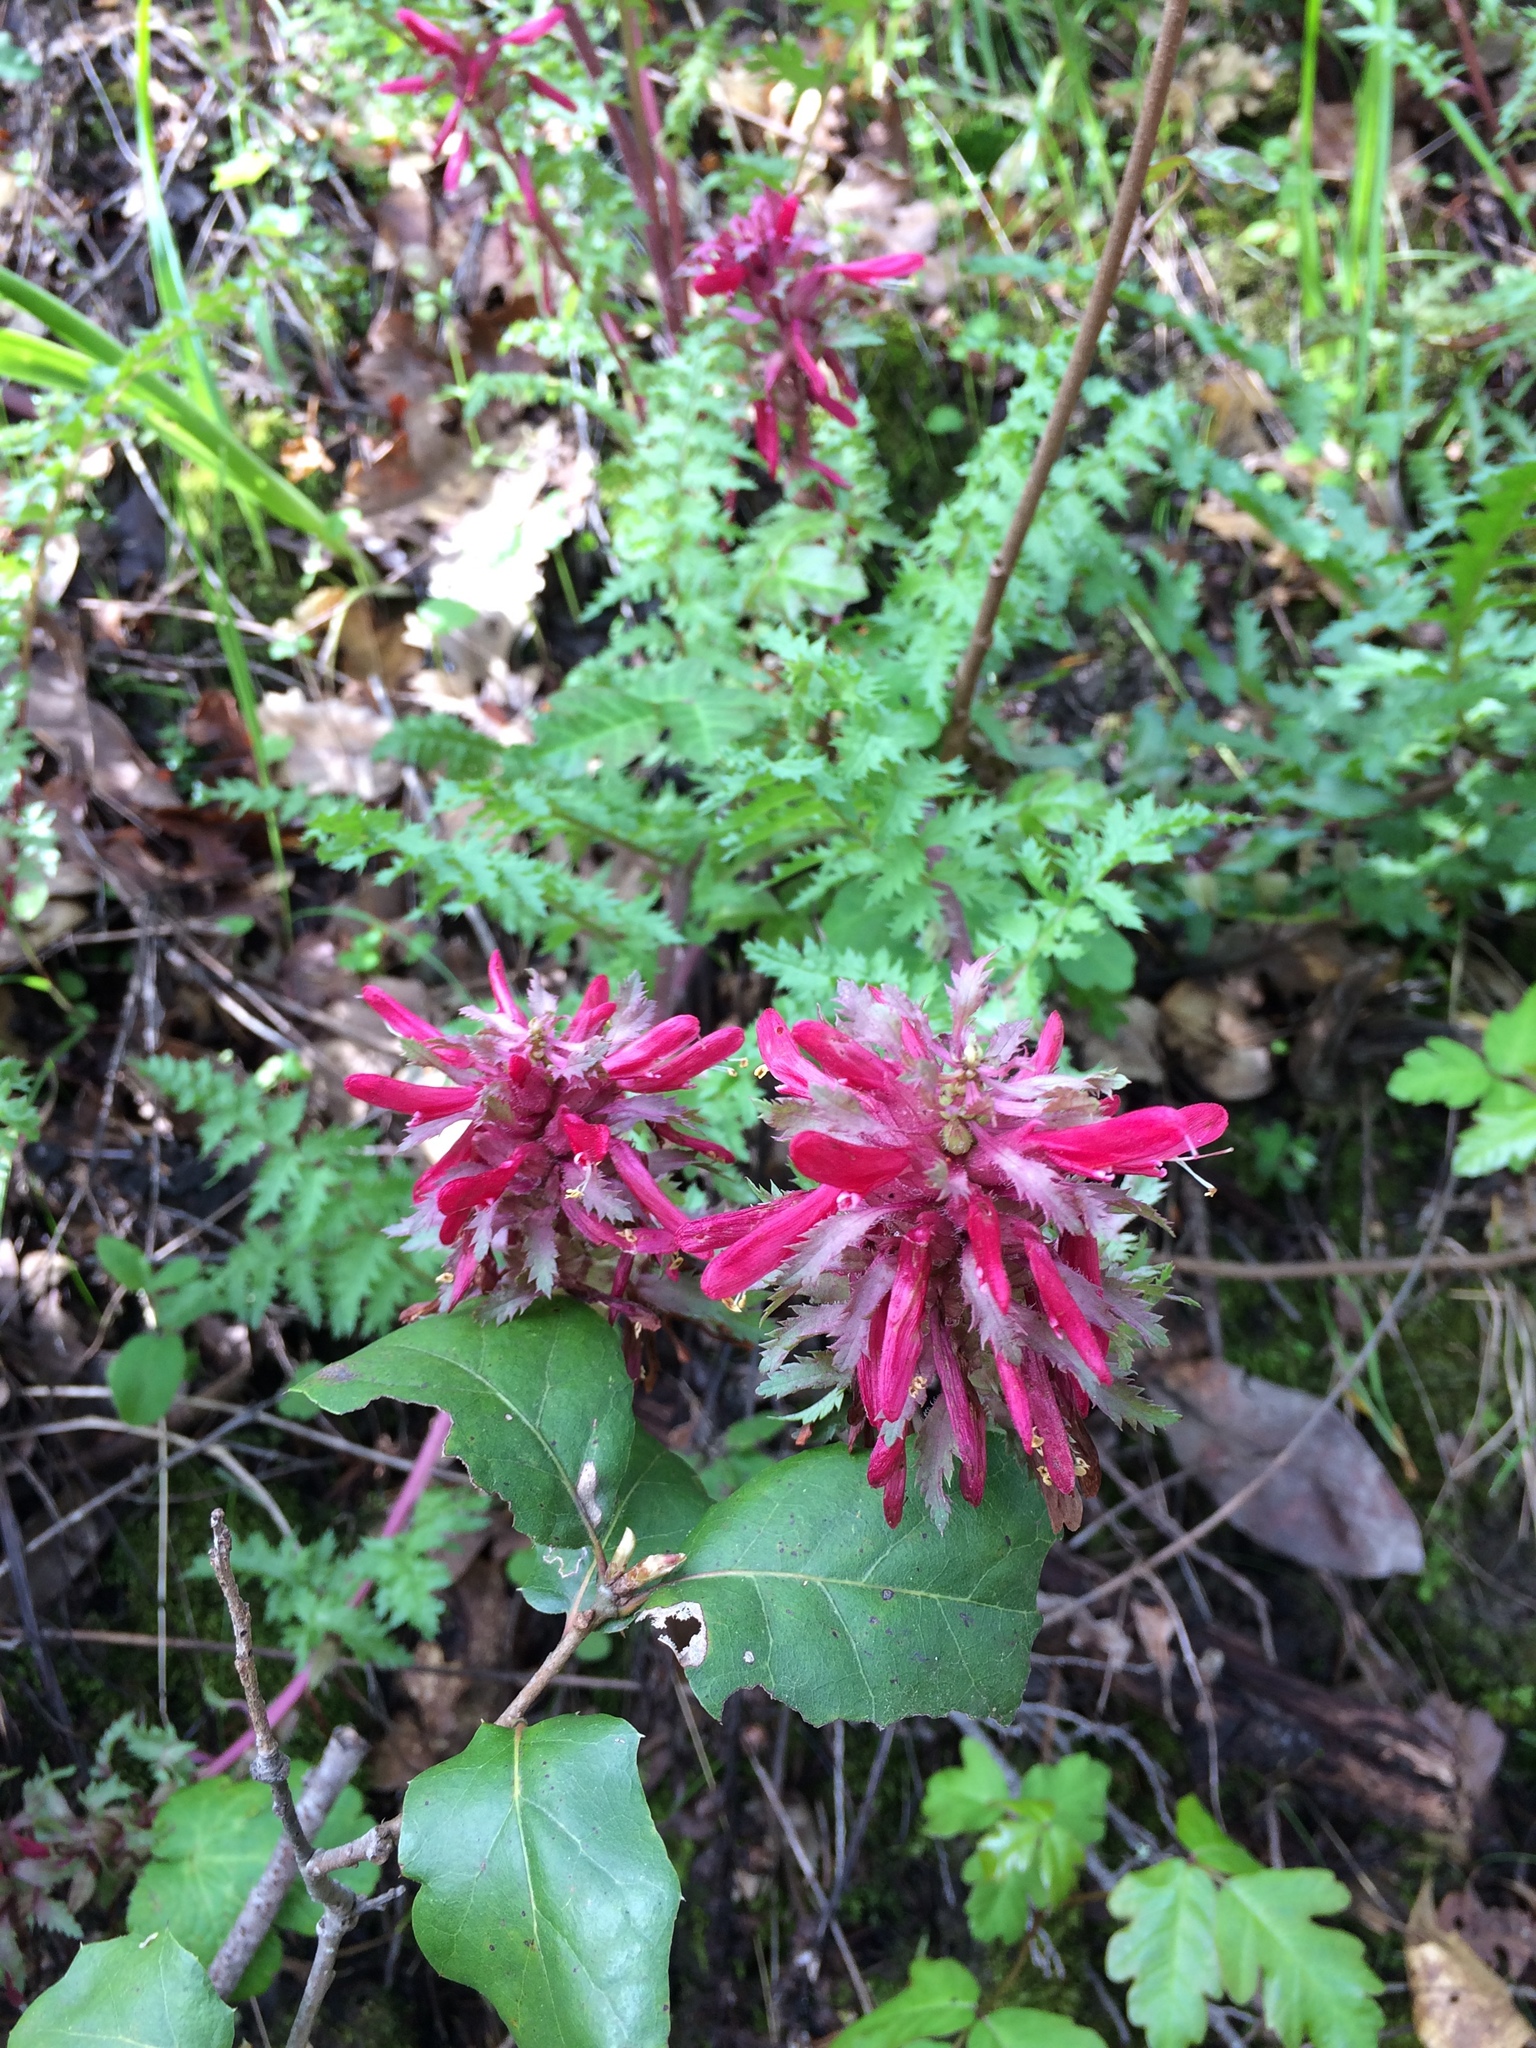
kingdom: Plantae
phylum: Tracheophyta
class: Magnoliopsida
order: Lamiales
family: Orobanchaceae
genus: Pedicularis
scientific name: Pedicularis densiflora
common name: Indian warrior
